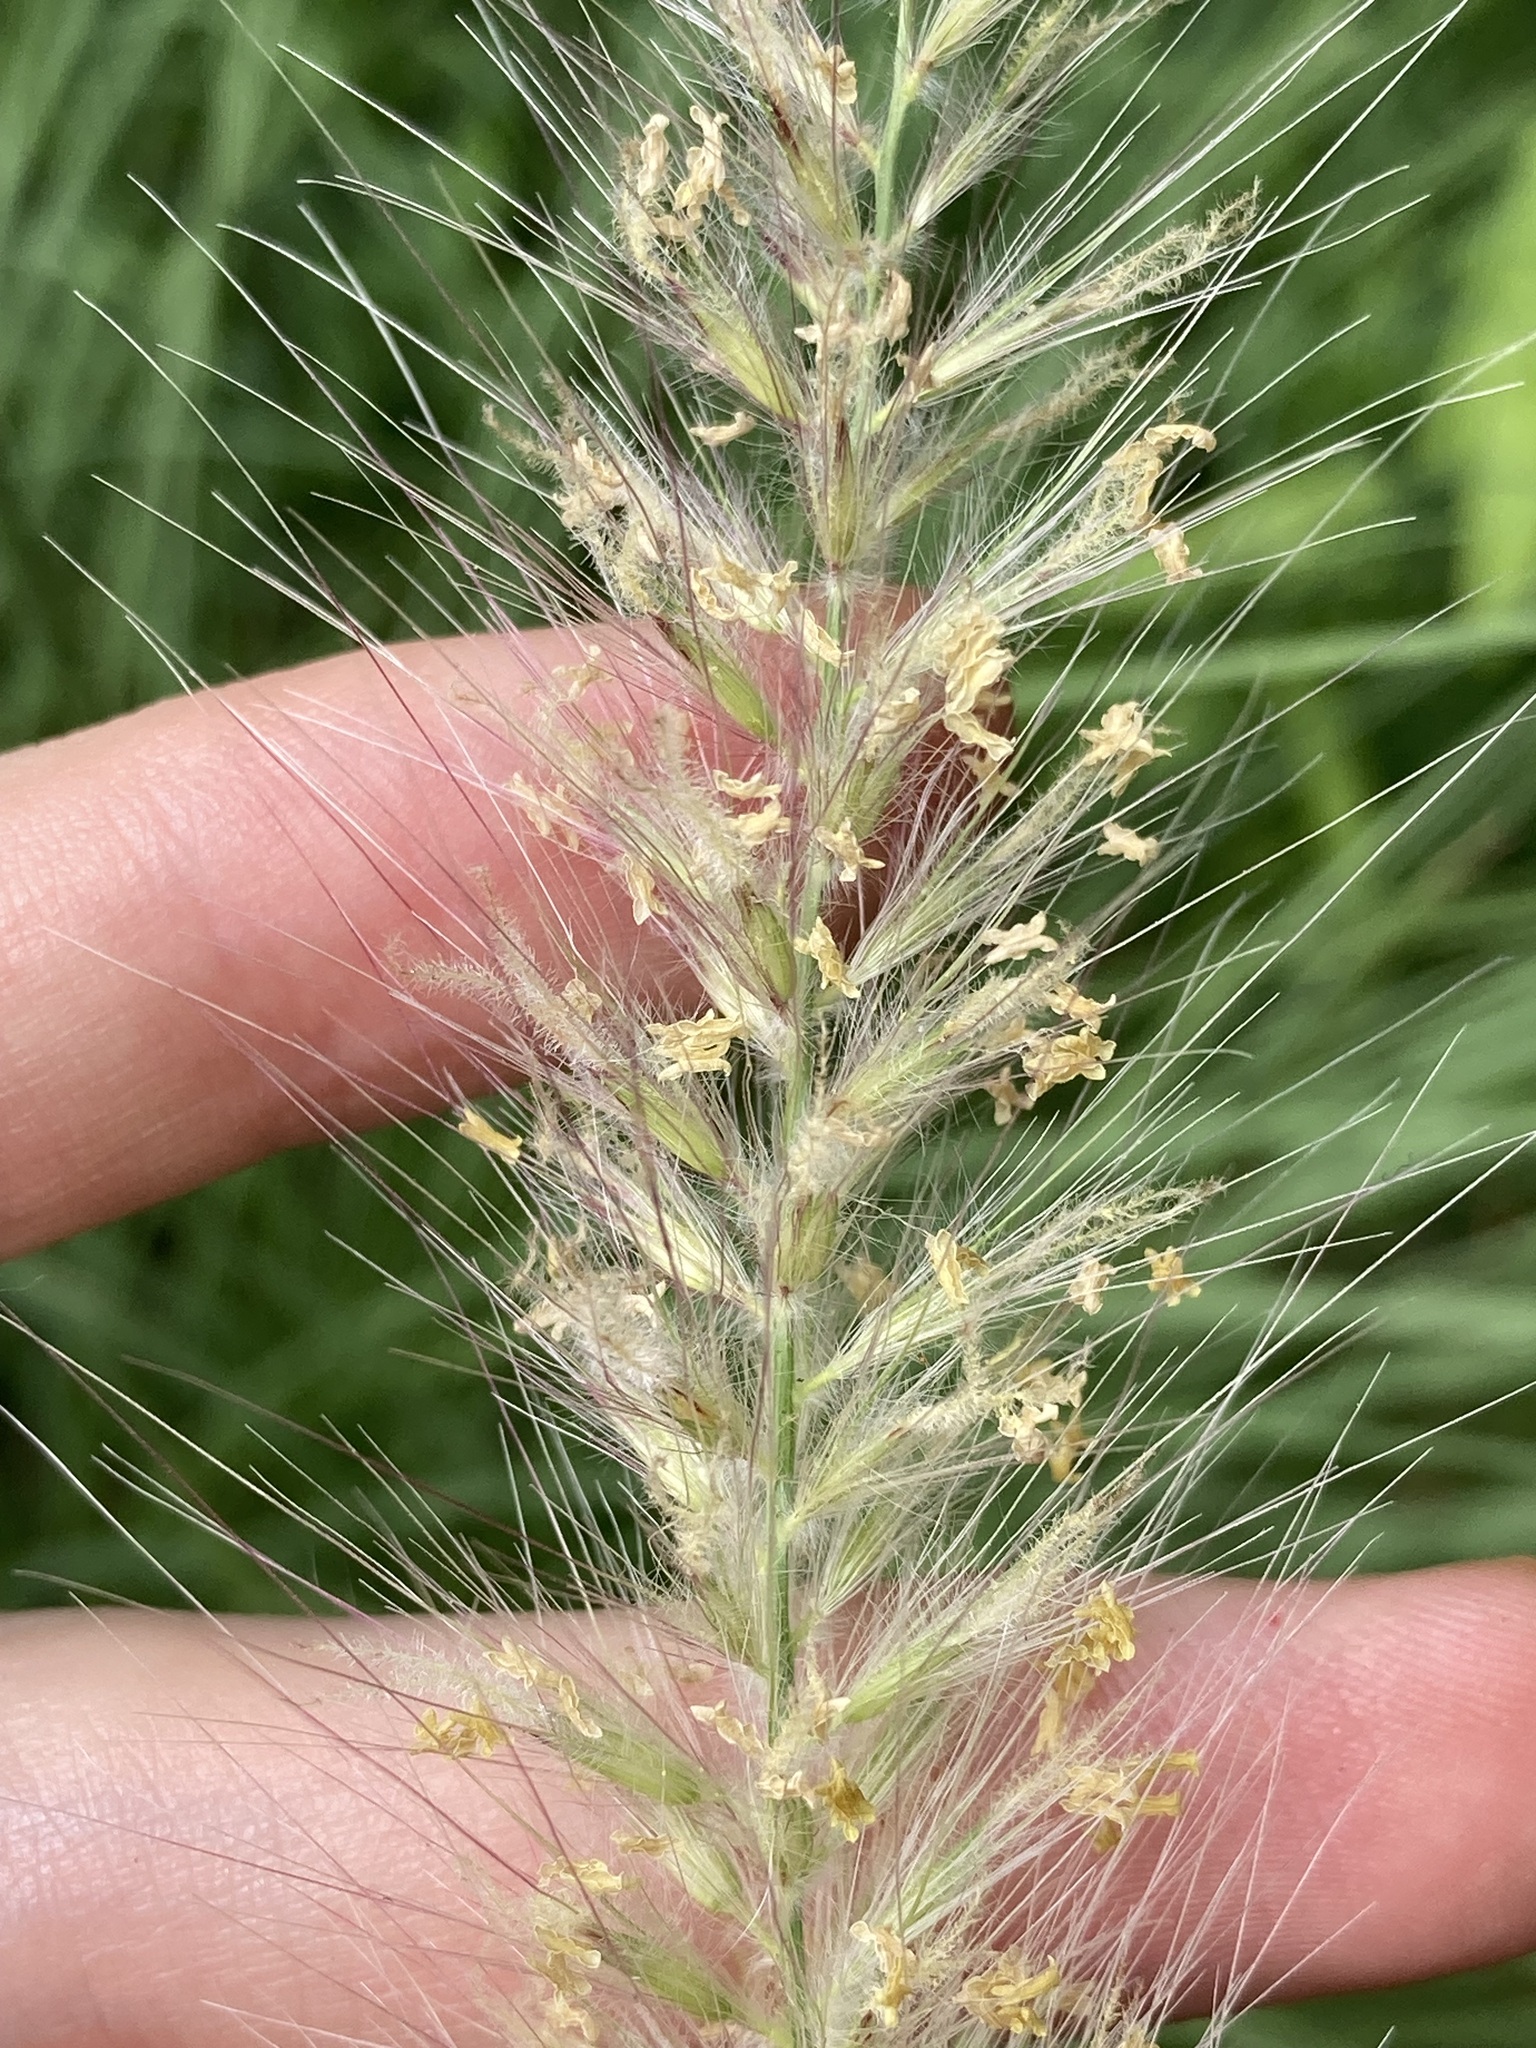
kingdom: Plantae
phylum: Tracheophyta
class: Liliopsida
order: Poales
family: Poaceae
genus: Cenchrus
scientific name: Cenchrus setaceus
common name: Crimson fountaingrass
